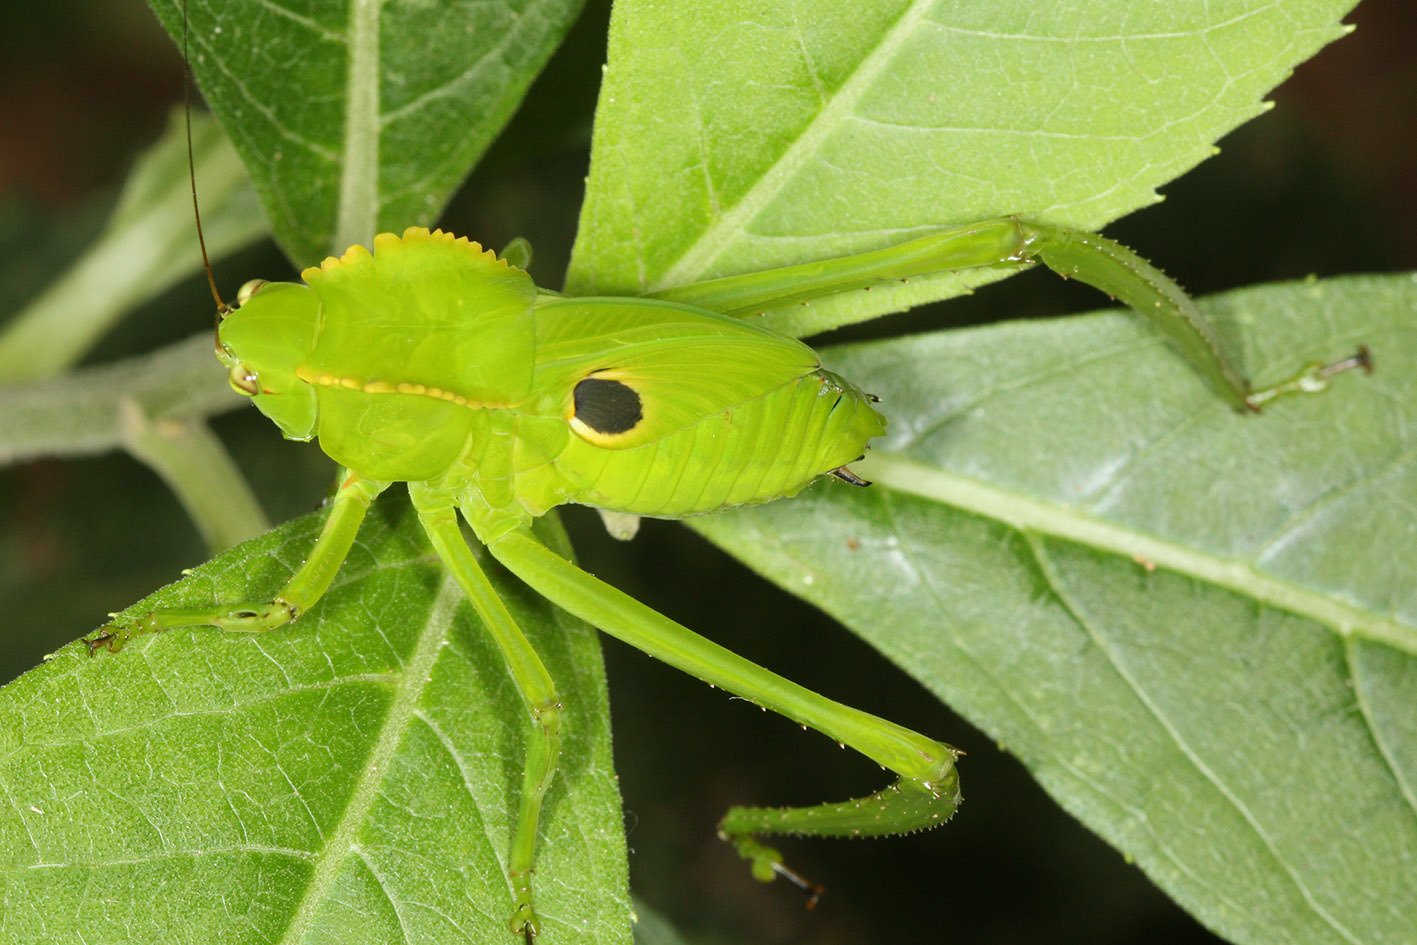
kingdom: Animalia
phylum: Arthropoda
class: Insecta
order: Orthoptera
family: Tettigoniidae
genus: Cnemidophyllum
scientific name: Cnemidophyllum citrifolium
